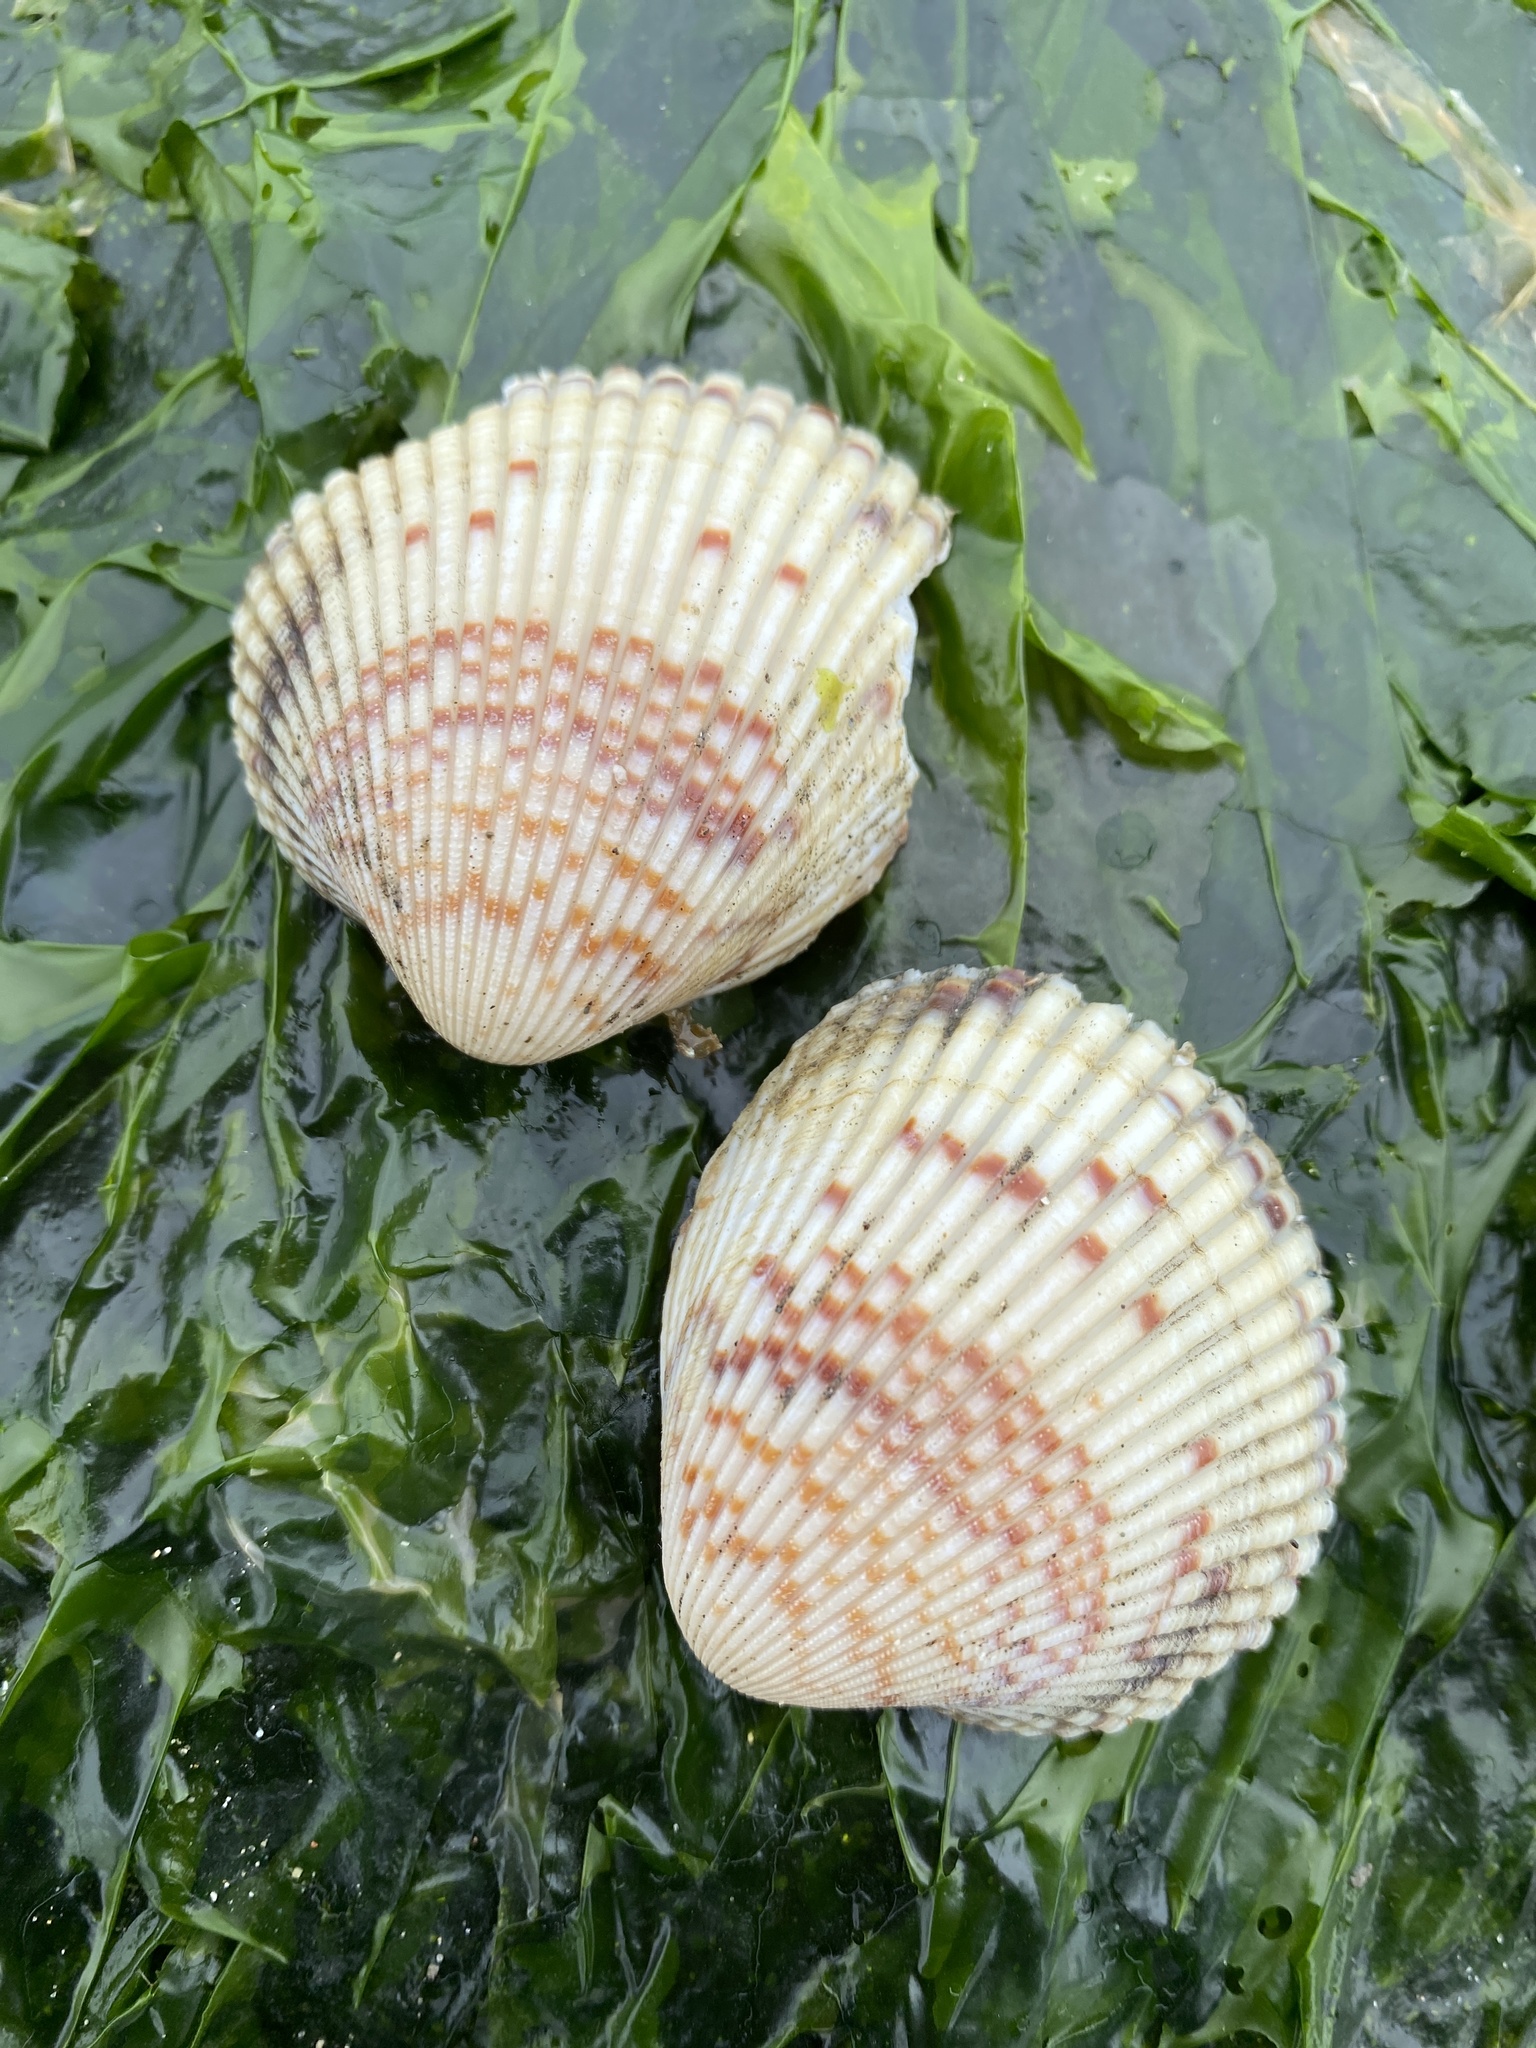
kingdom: Animalia
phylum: Mollusca
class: Bivalvia
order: Cardiida
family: Cardiidae
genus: Clinocardium
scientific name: Clinocardium nuttallii
